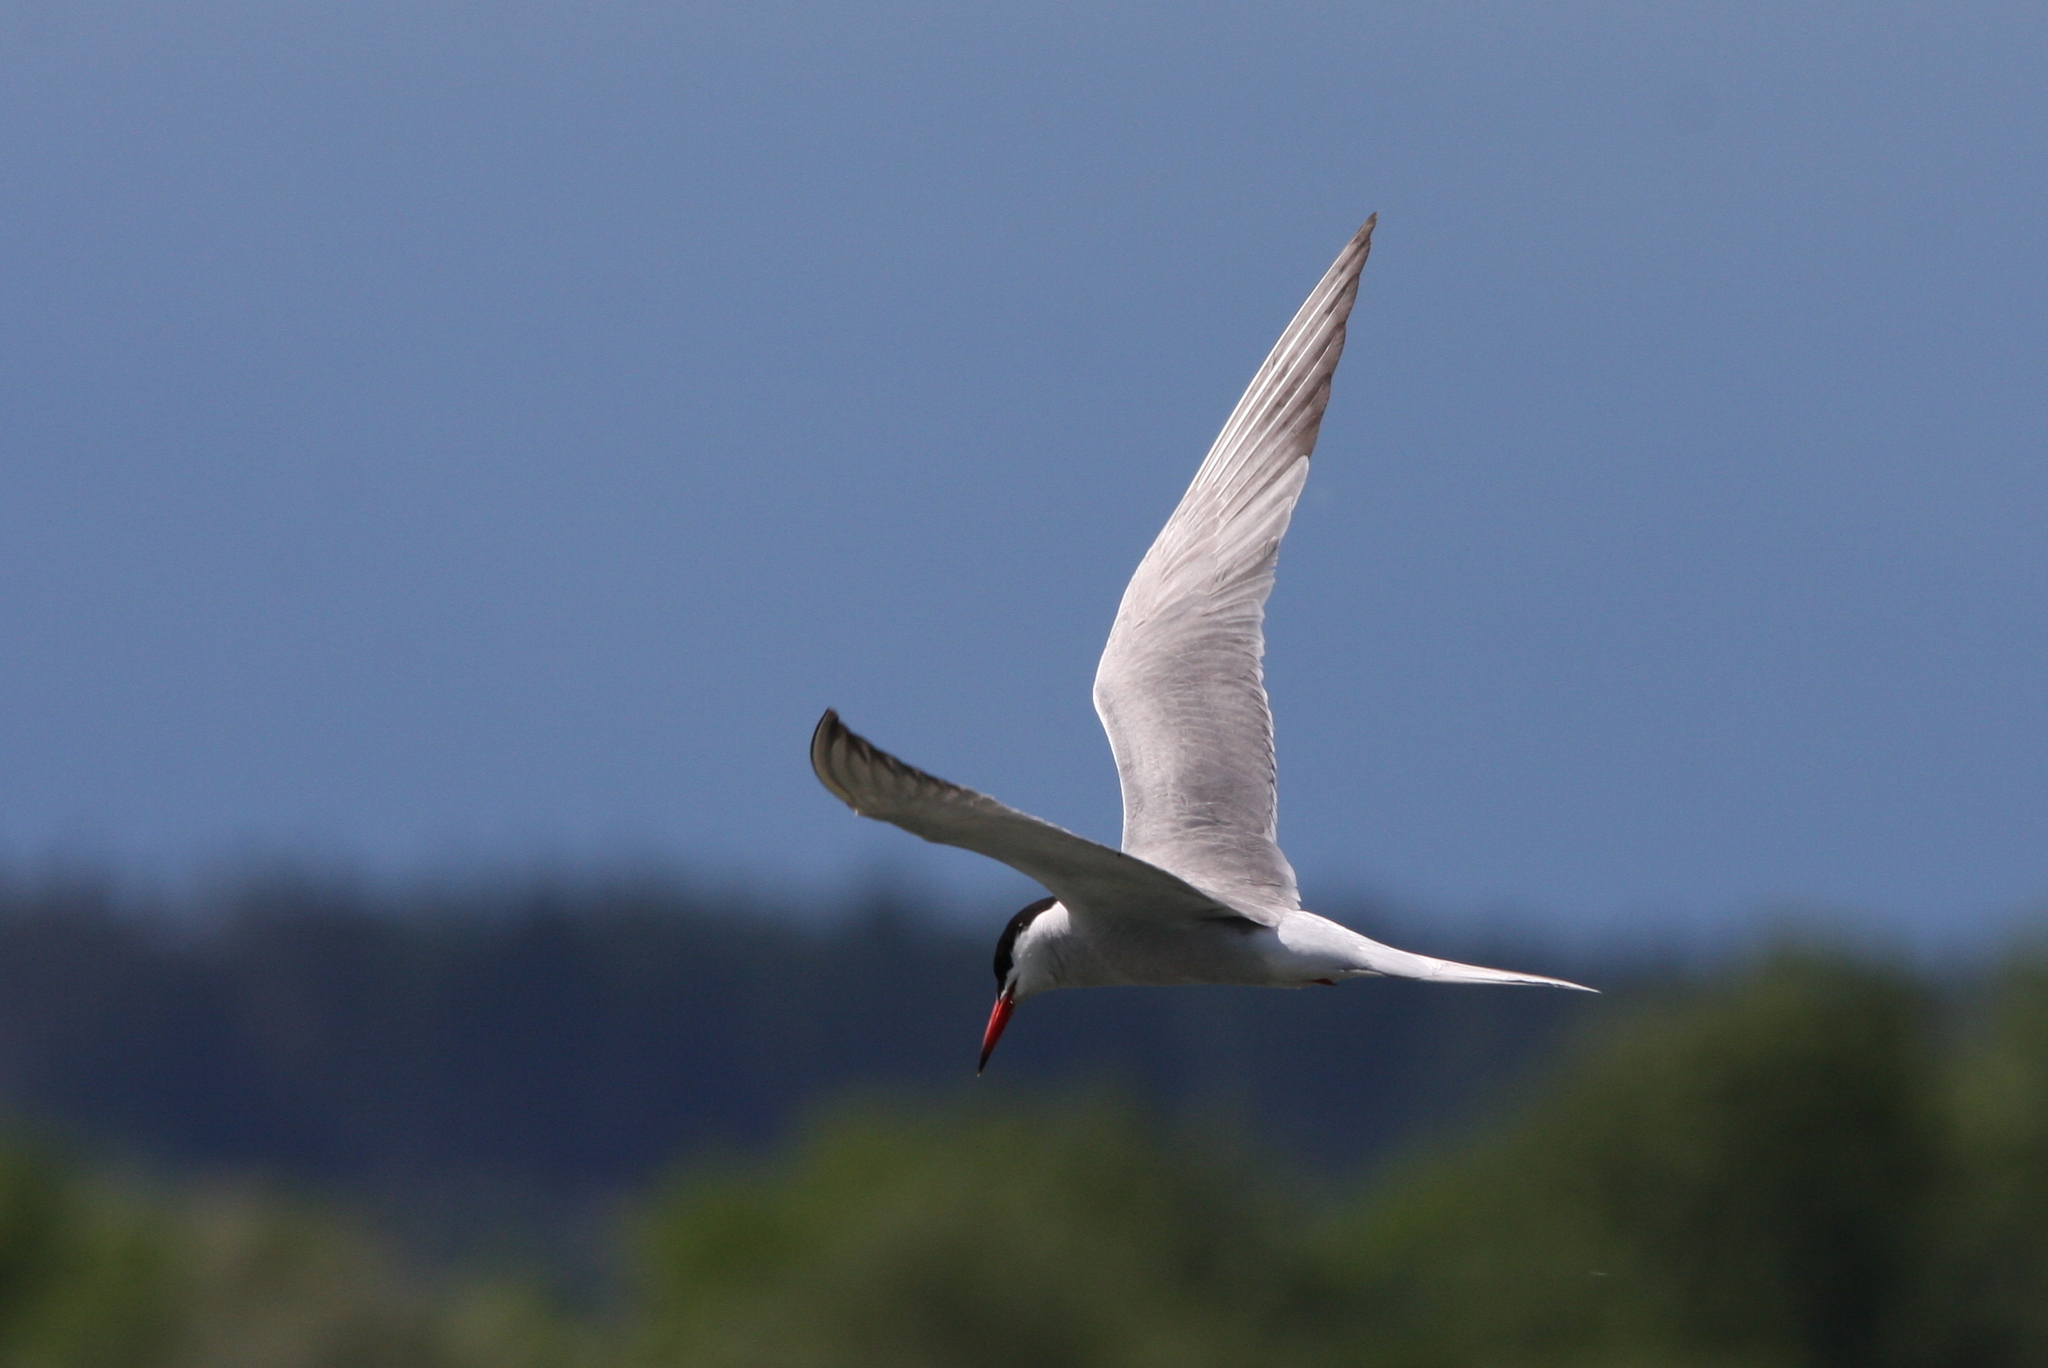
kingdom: Animalia
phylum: Chordata
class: Aves
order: Charadriiformes
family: Laridae
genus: Sterna
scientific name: Sterna hirundo
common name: Common tern
